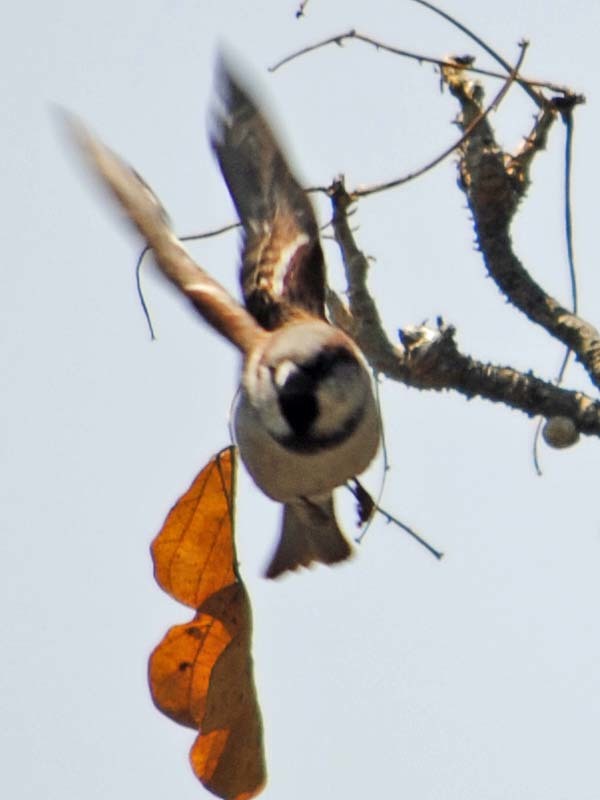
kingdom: Animalia
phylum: Chordata
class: Aves
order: Passeriformes
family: Passeridae
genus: Passer
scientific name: Passer domesticus
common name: House sparrow
